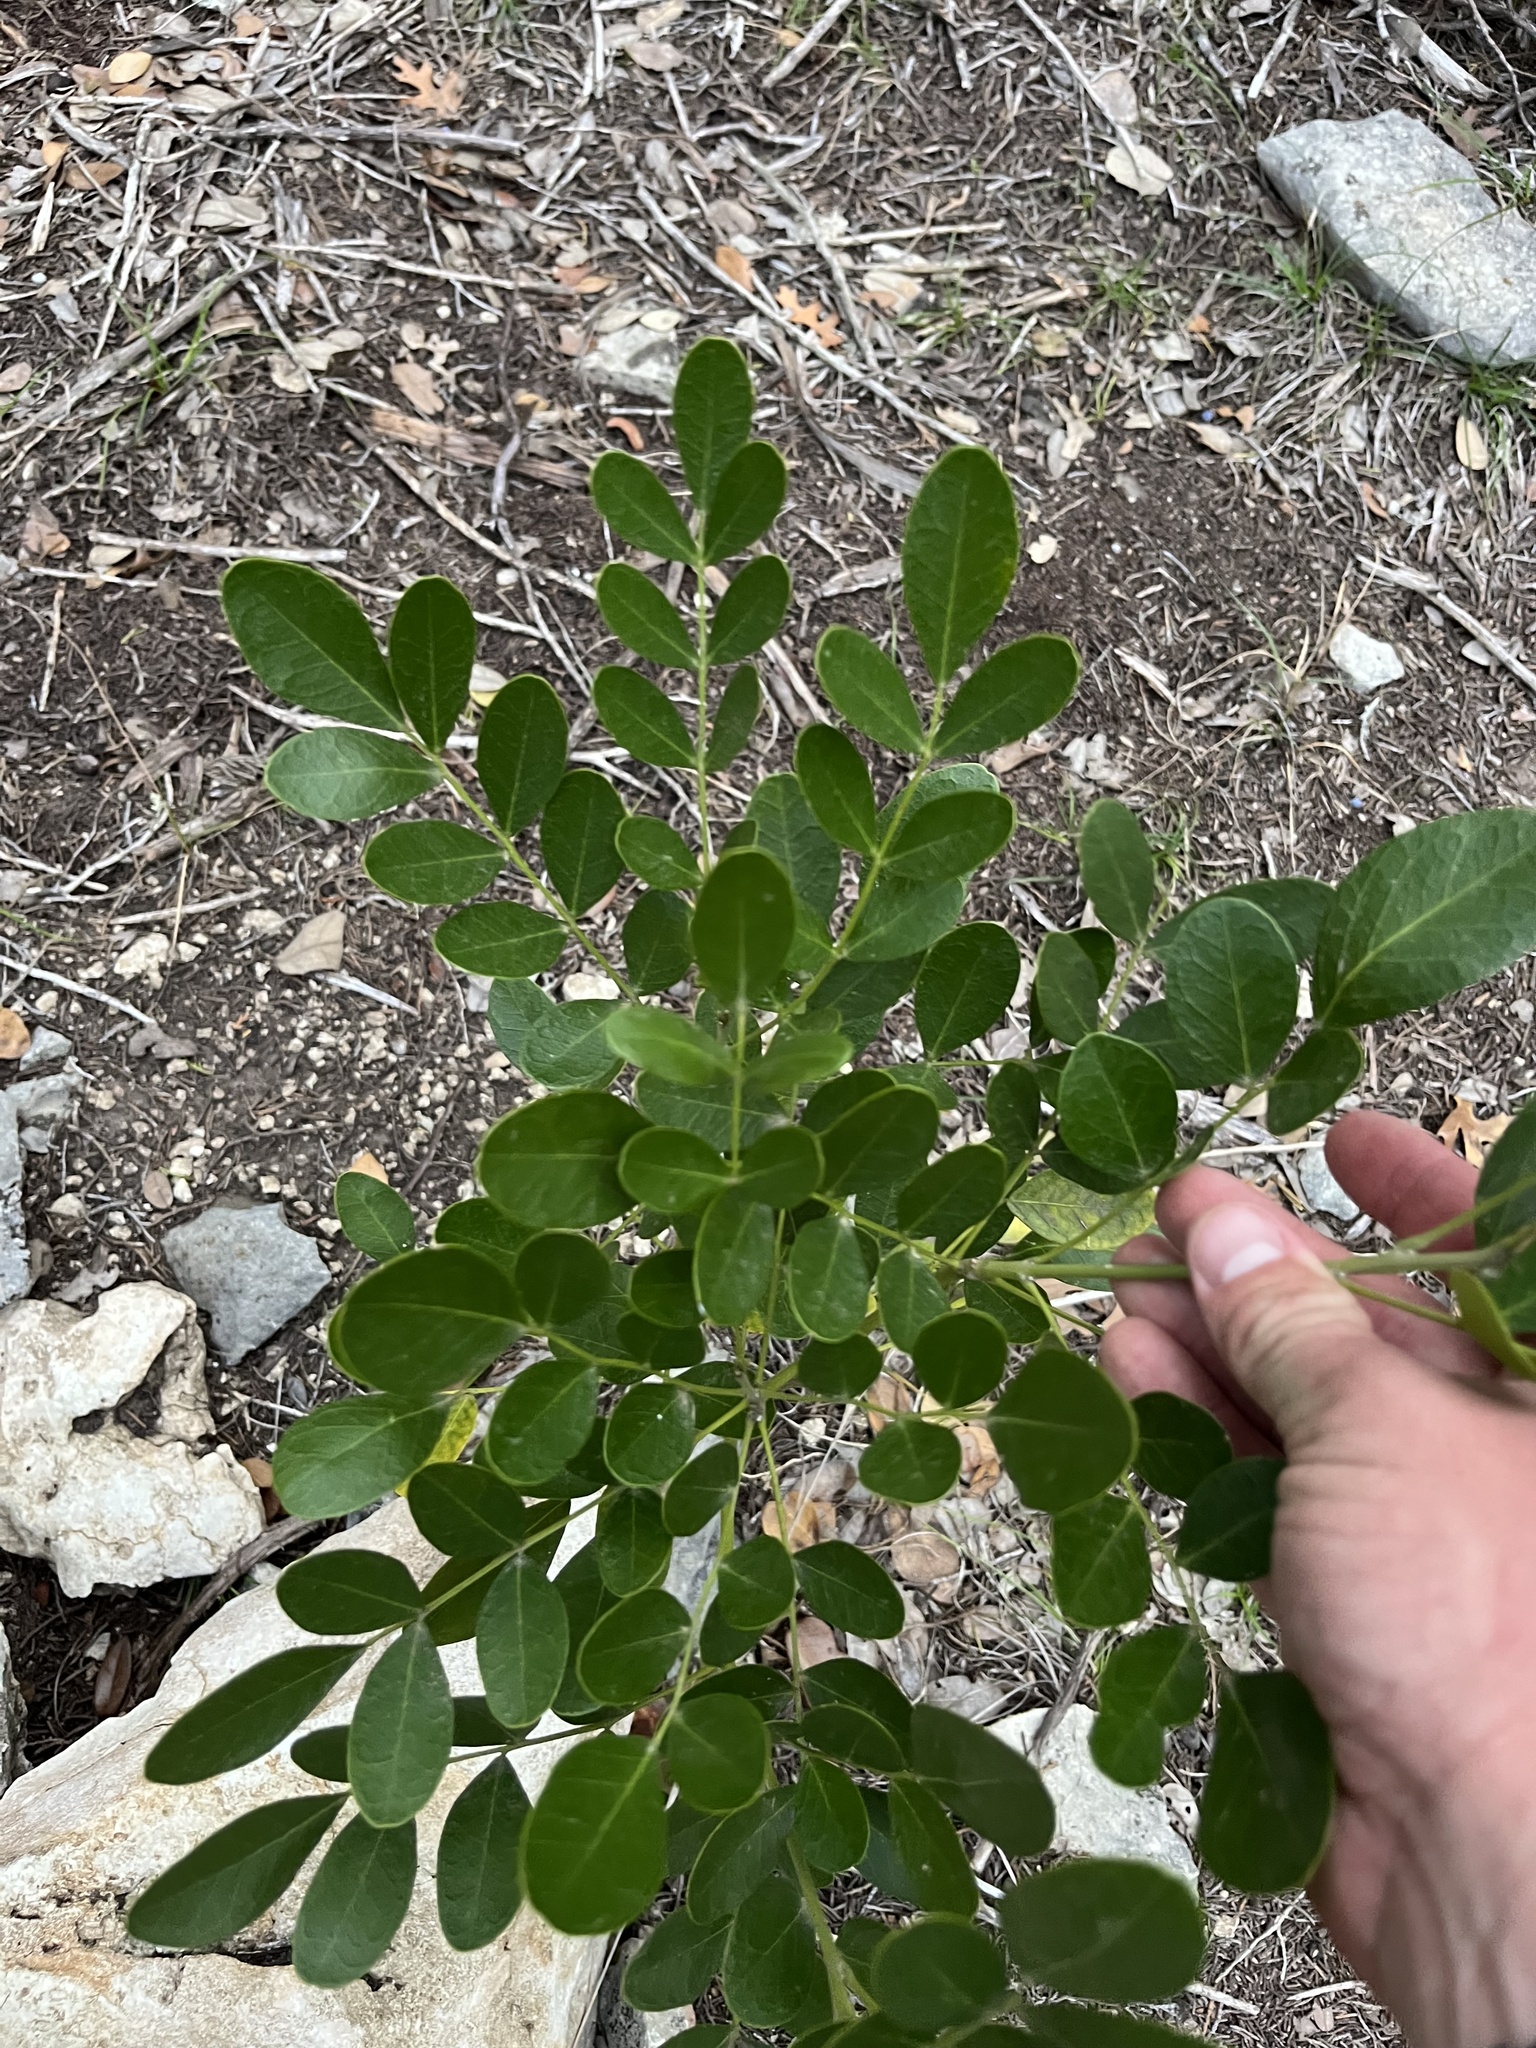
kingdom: Plantae
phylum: Tracheophyta
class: Magnoliopsida
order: Fabales
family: Fabaceae
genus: Dermatophyllum
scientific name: Dermatophyllum secundiflorum
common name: Texas-mountain-laurel
